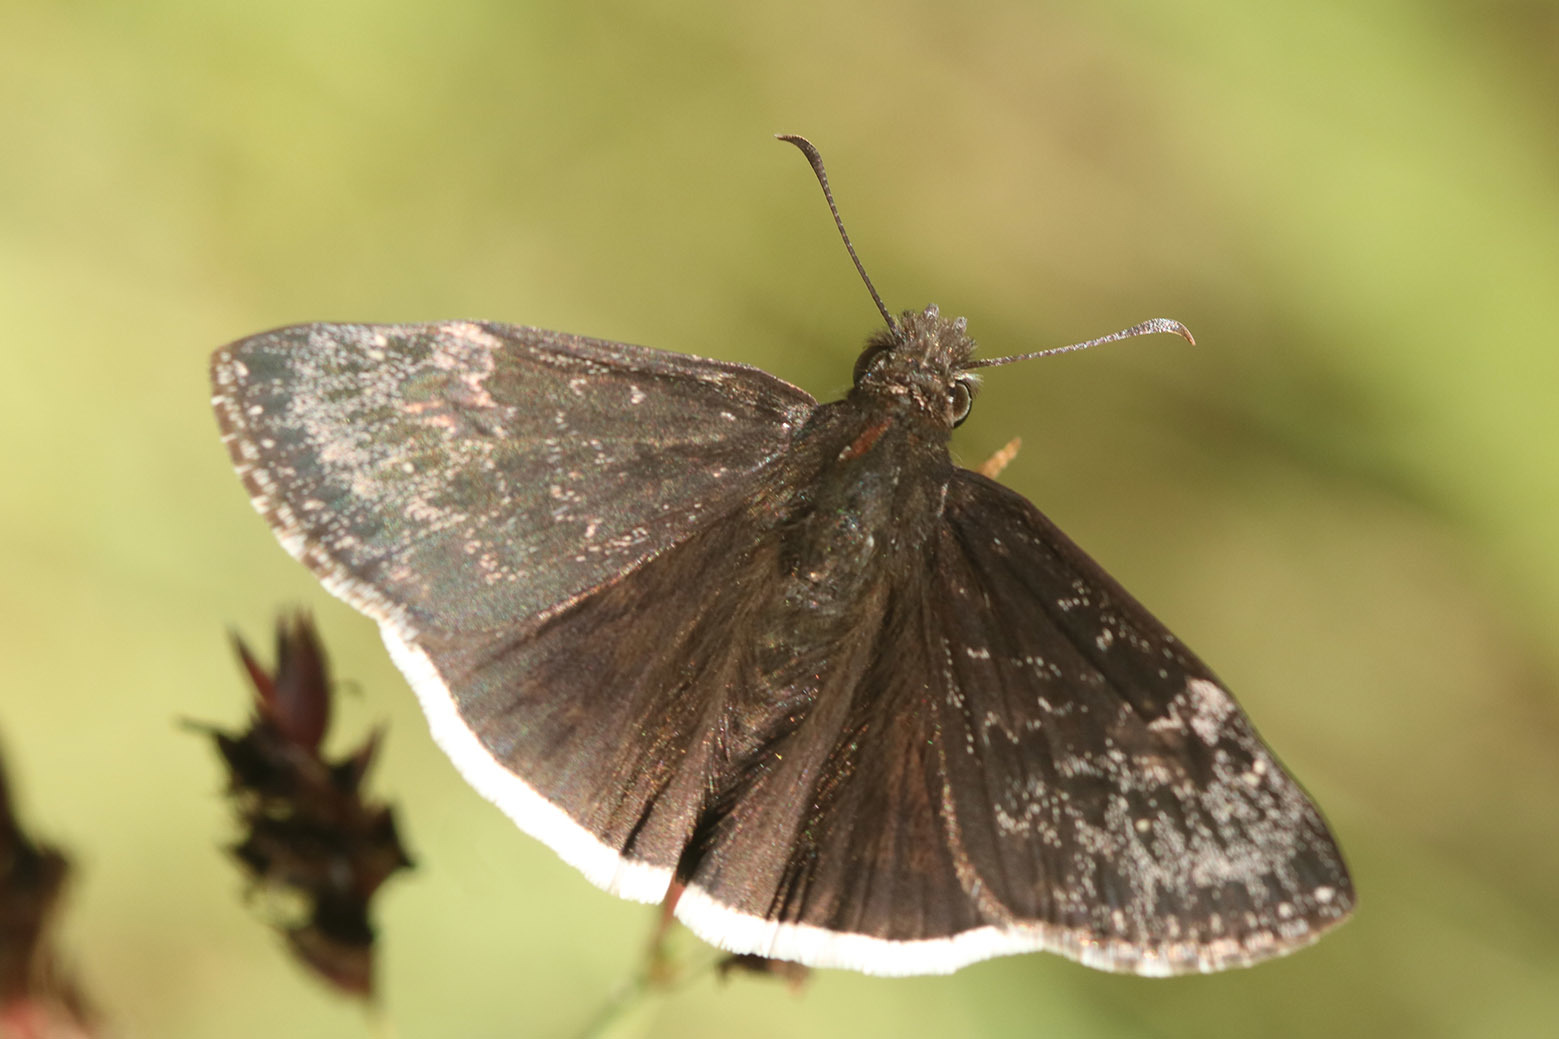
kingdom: Animalia
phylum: Arthropoda
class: Insecta
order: Lepidoptera
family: Hesperiidae
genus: Erynnis
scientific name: Erynnis funeralis
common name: Funereal duskywing
